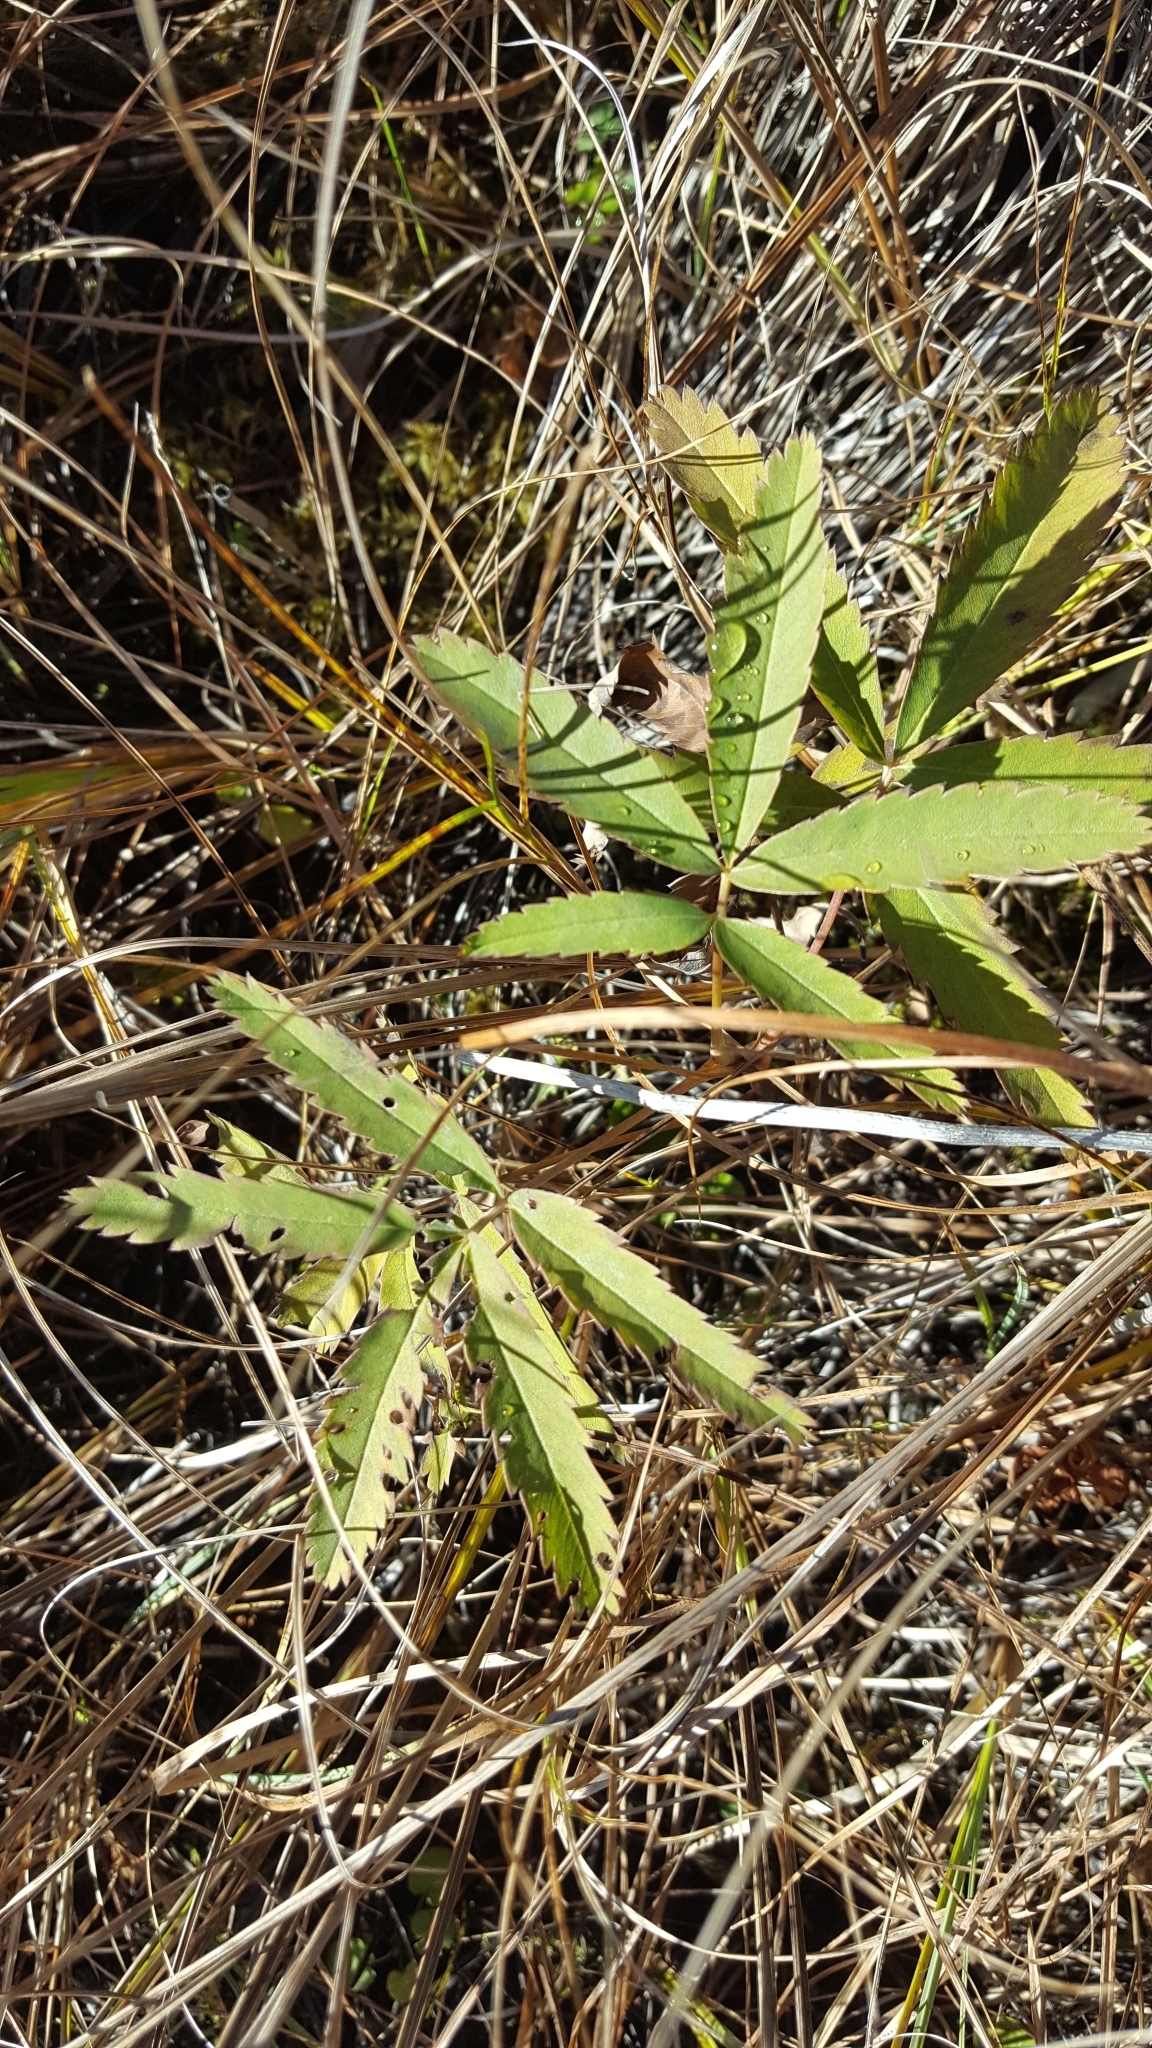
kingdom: Plantae
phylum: Tracheophyta
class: Magnoliopsida
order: Rosales
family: Rosaceae
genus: Comarum
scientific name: Comarum palustre
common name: Marsh cinquefoil
